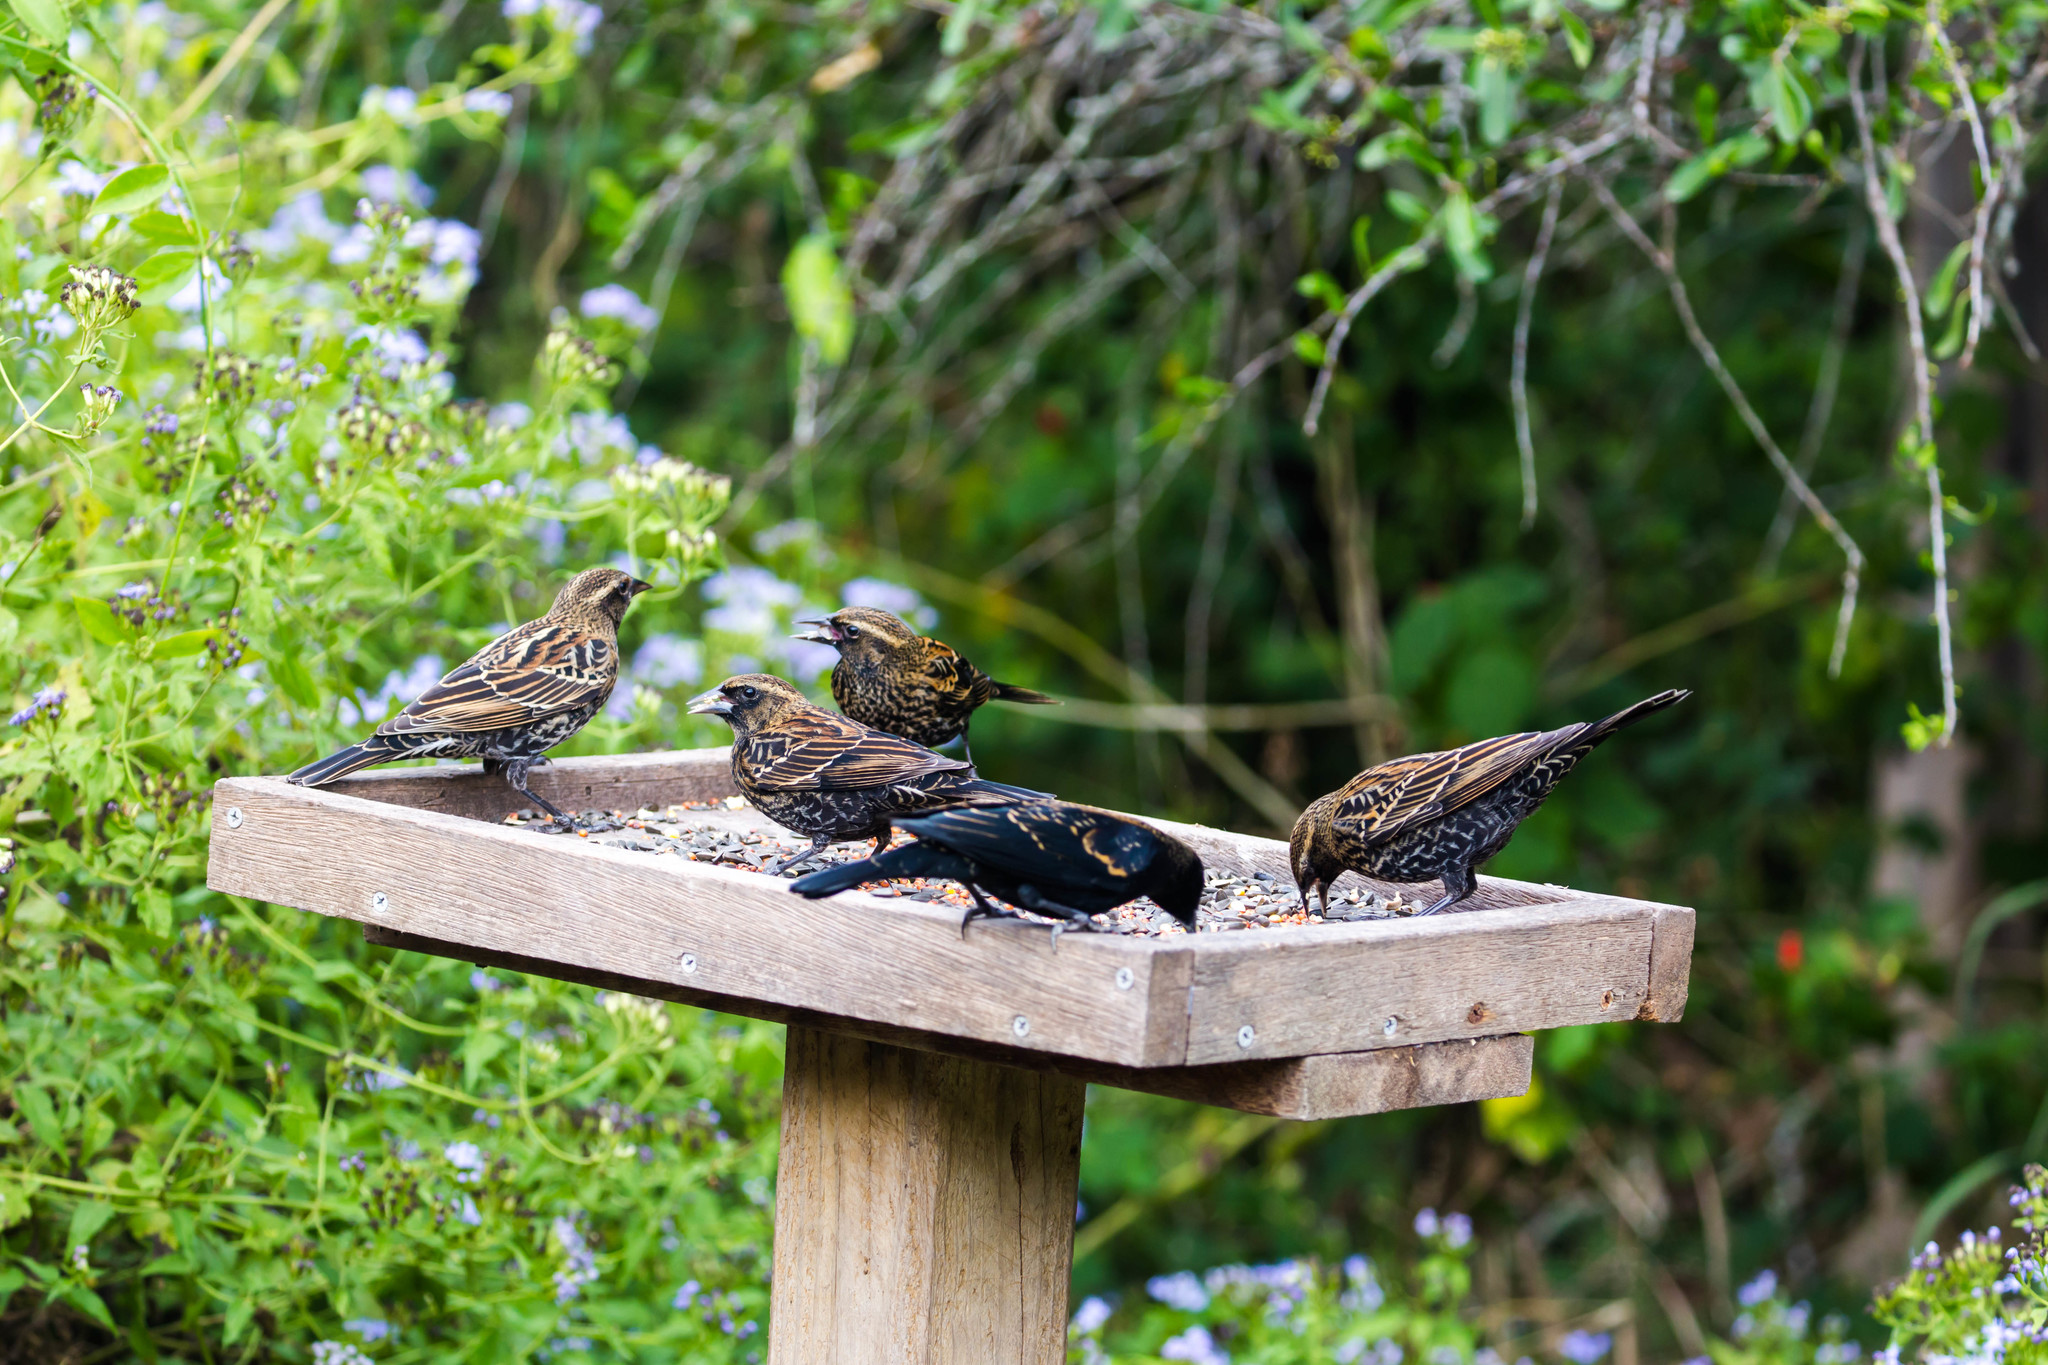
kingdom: Animalia
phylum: Chordata
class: Aves
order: Passeriformes
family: Icteridae
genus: Agelaius
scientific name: Agelaius phoeniceus
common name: Red-winged blackbird
